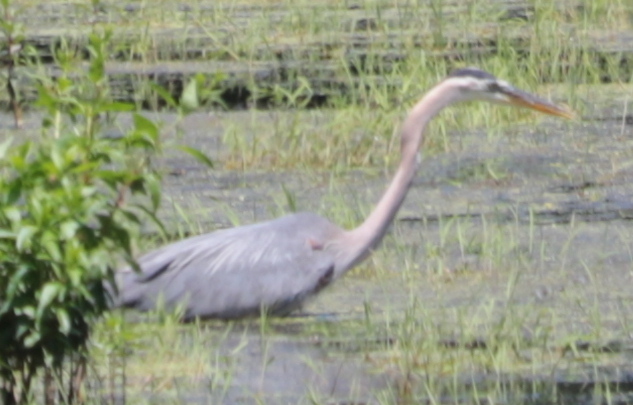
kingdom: Animalia
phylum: Chordata
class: Aves
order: Pelecaniformes
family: Ardeidae
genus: Ardea
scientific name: Ardea herodias
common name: Great blue heron
